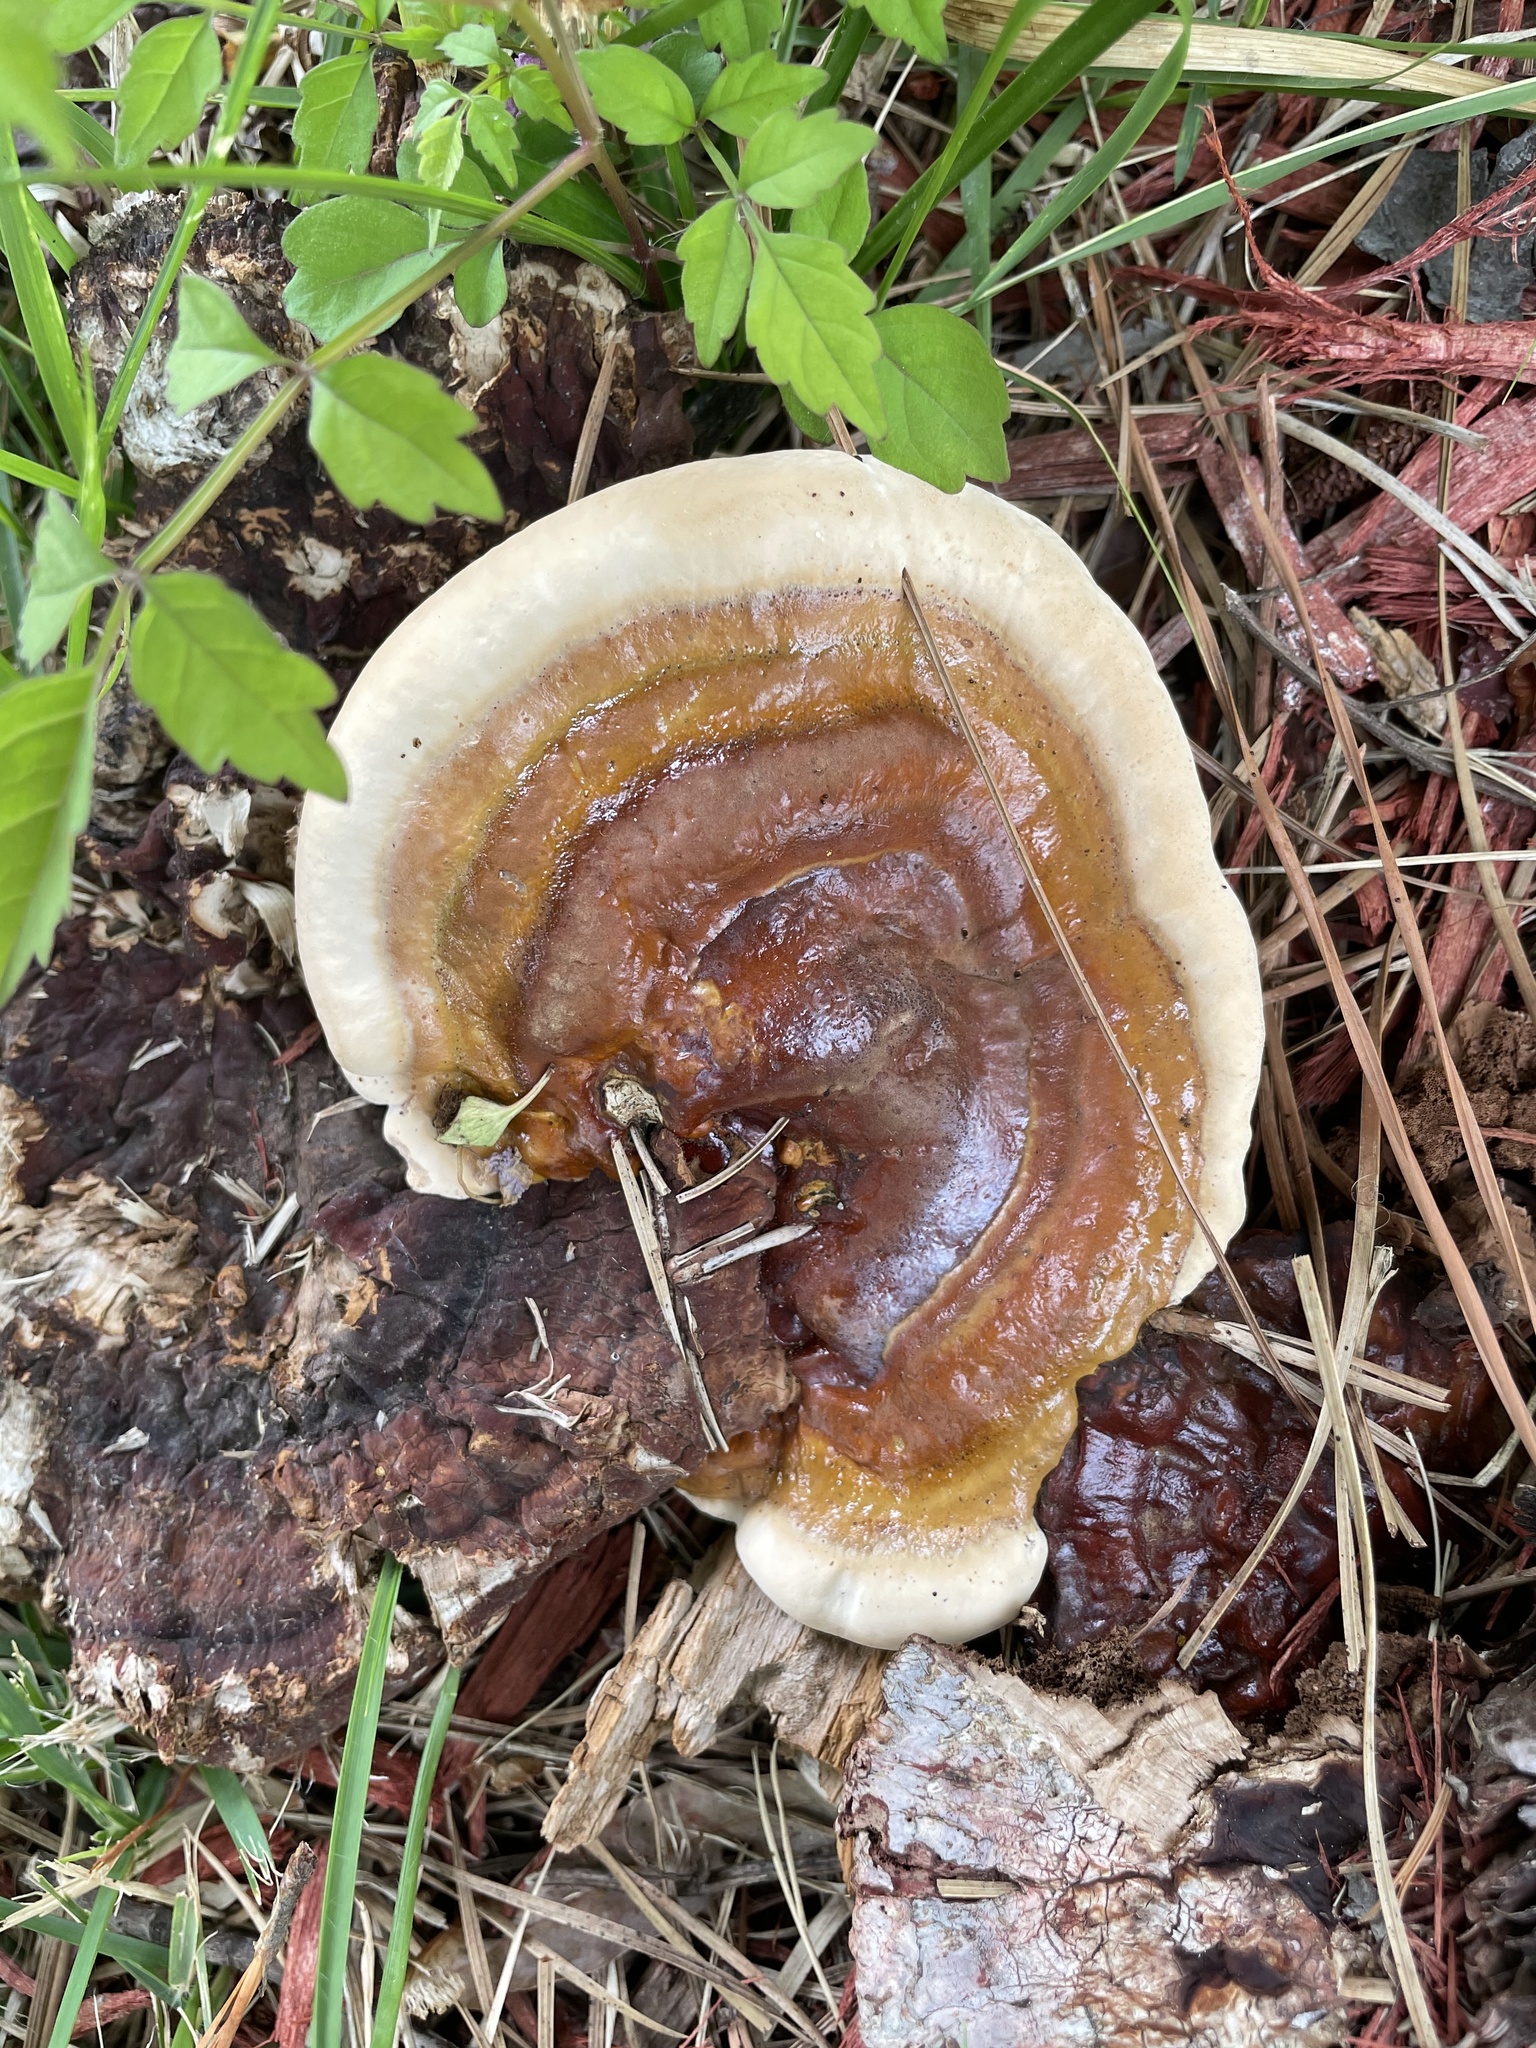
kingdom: Fungi
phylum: Basidiomycota
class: Agaricomycetes
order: Polyporales
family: Polyporaceae
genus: Ganoderma
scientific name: Ganoderma resinaceum
